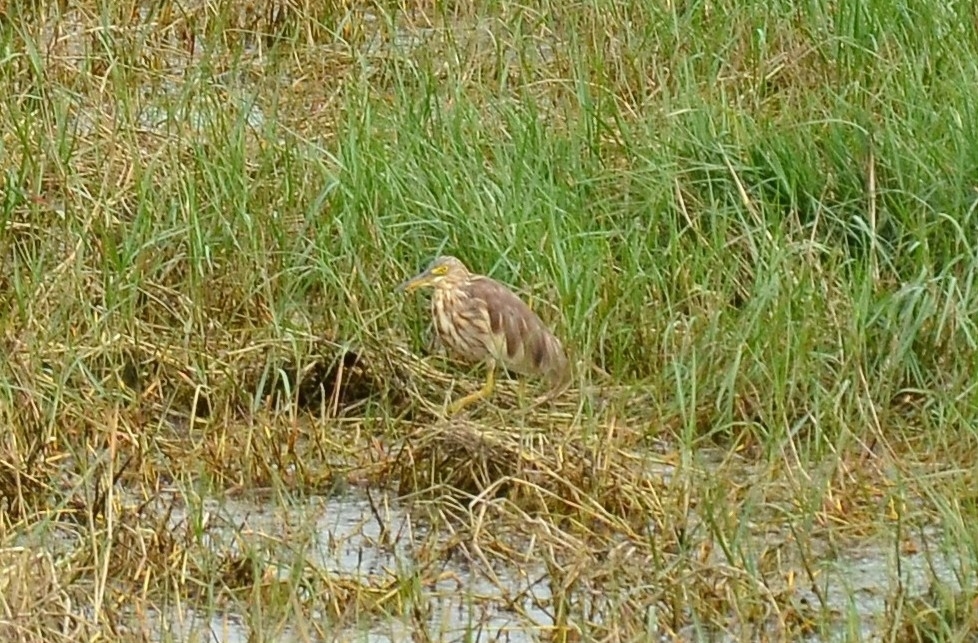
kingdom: Animalia
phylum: Chordata
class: Aves
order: Pelecaniformes
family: Ardeidae
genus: Ardeola
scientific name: Ardeola grayii
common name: Indian pond heron
